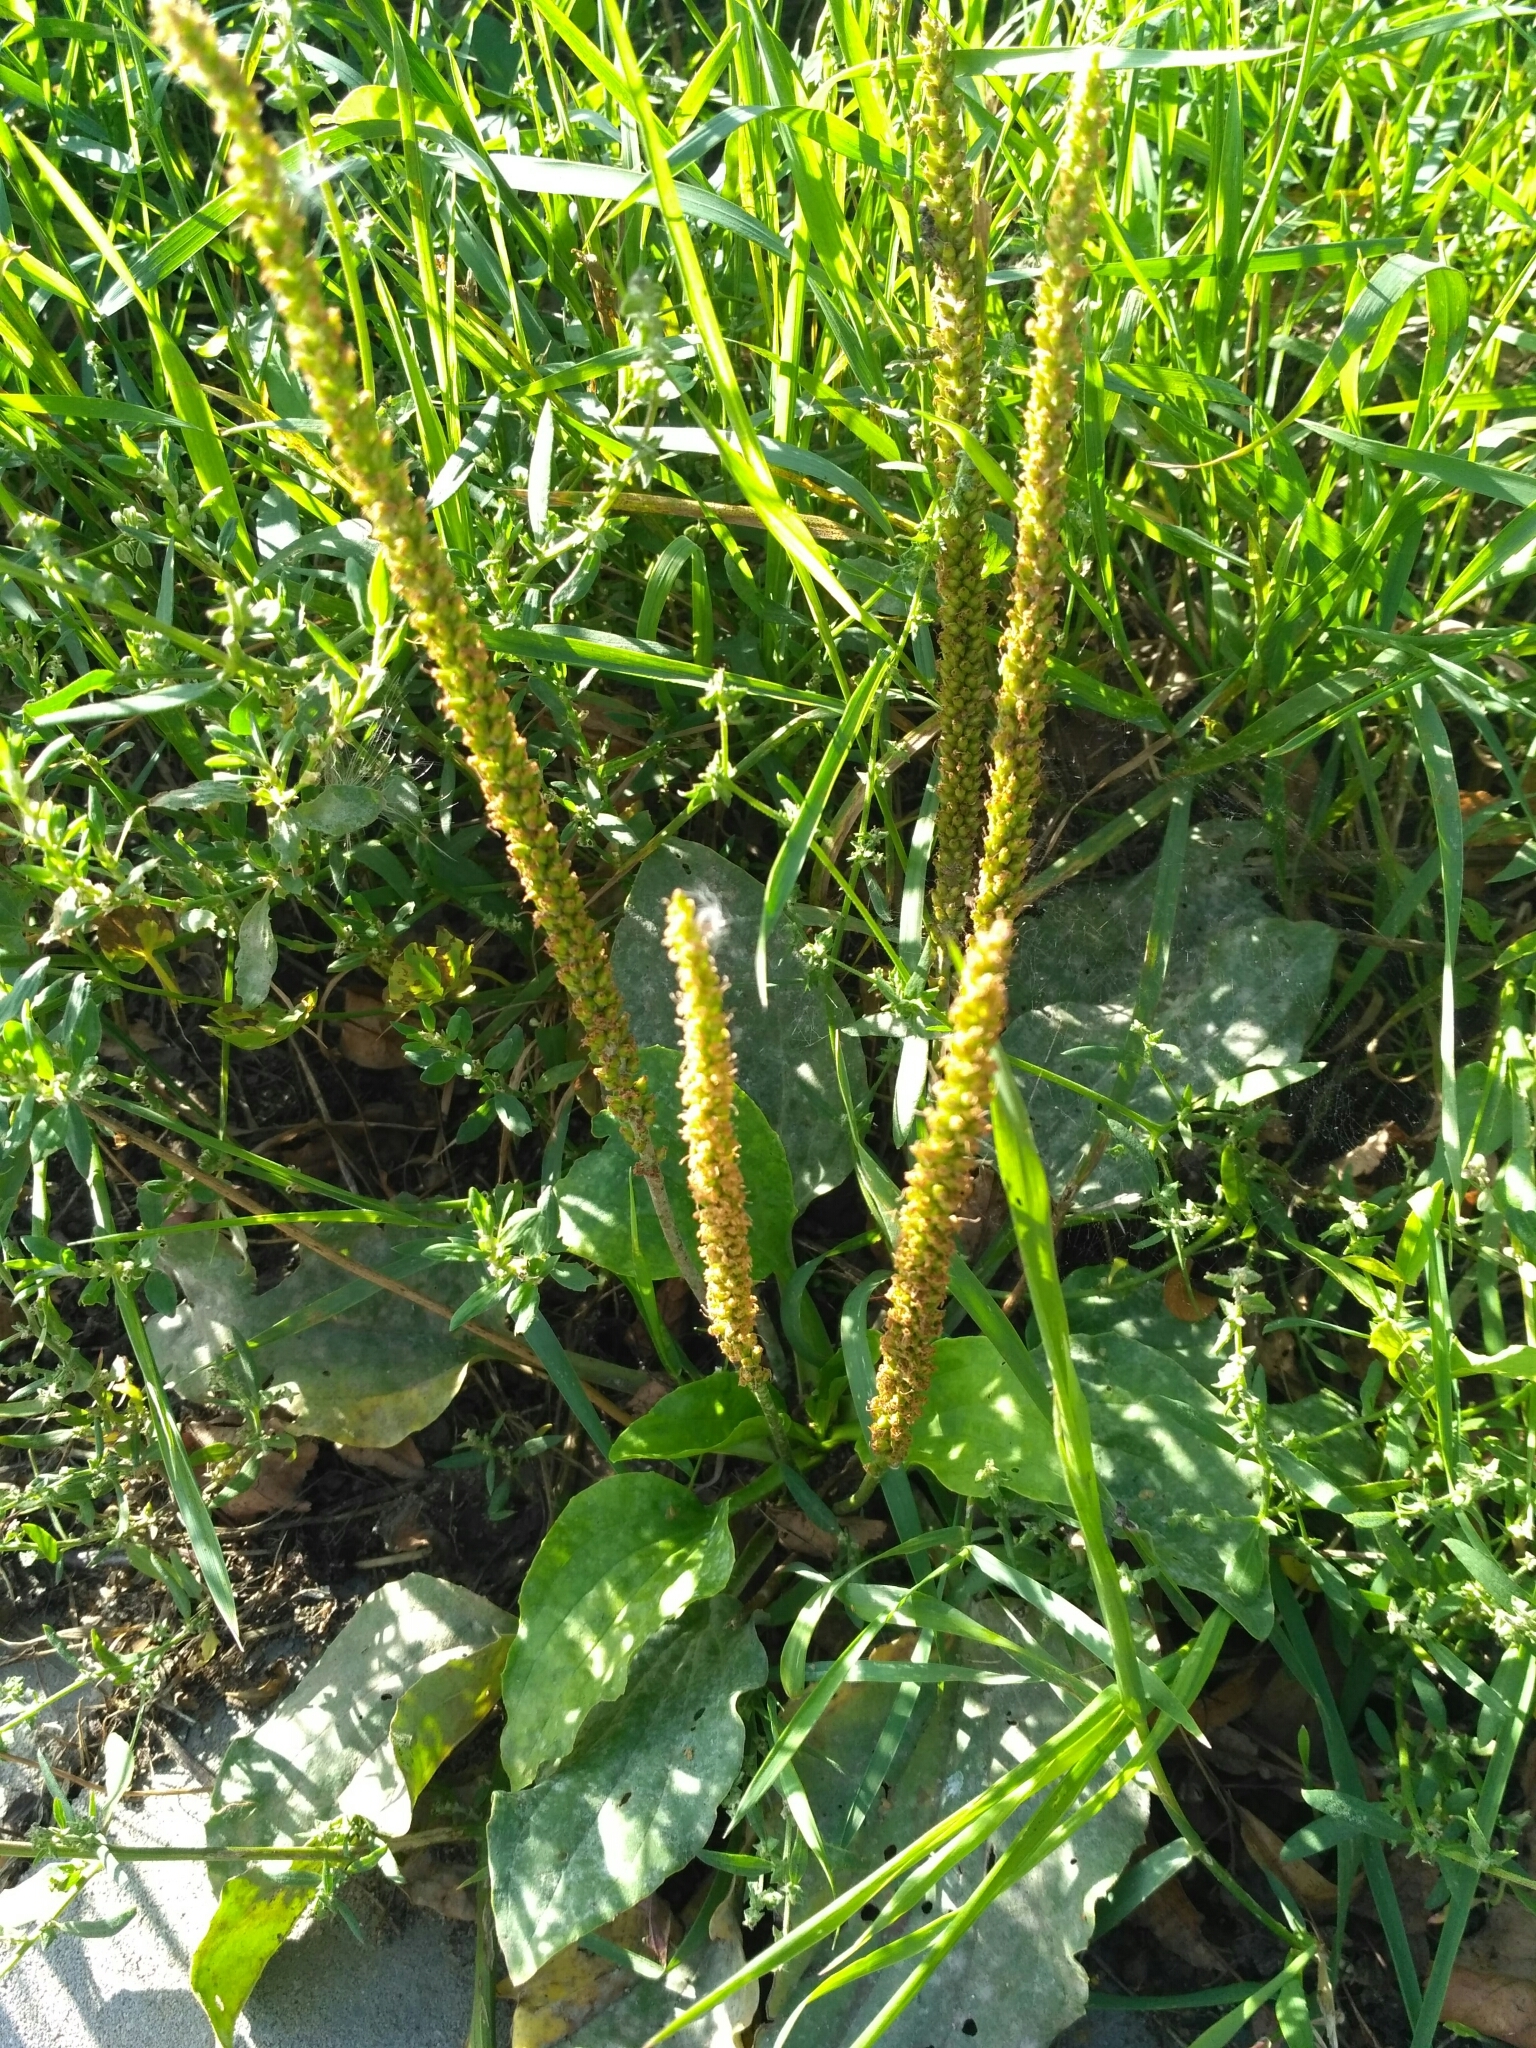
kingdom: Plantae
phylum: Tracheophyta
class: Magnoliopsida
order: Lamiales
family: Plantaginaceae
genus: Plantago
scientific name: Plantago major
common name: Common plantain
